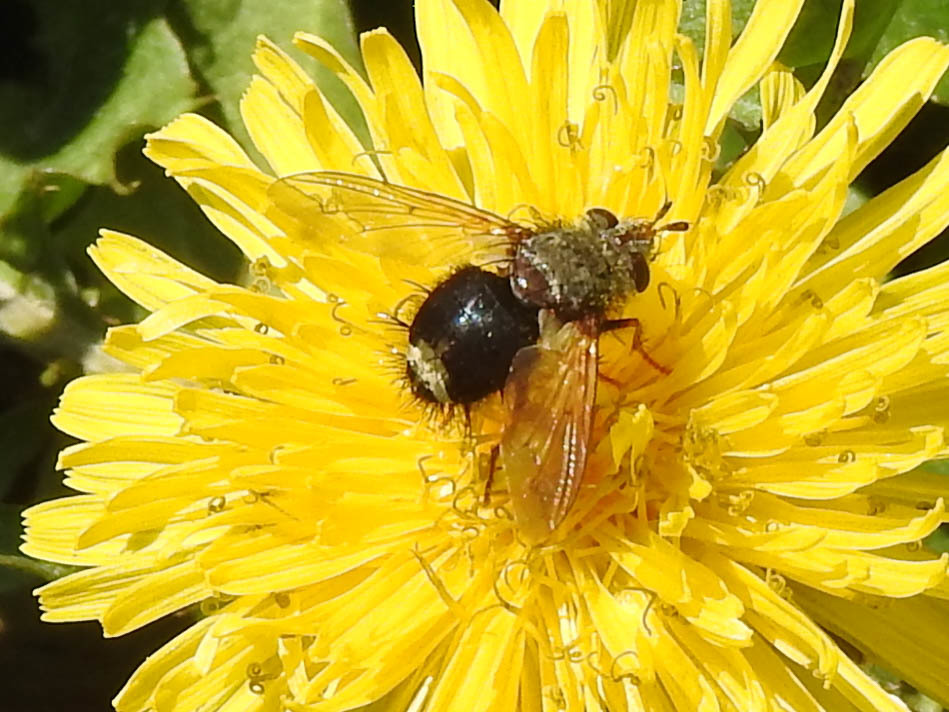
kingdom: Animalia
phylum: Arthropoda
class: Insecta
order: Diptera
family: Tachinidae
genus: Epalpus
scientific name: Epalpus signifer
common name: Early tachinid fly
